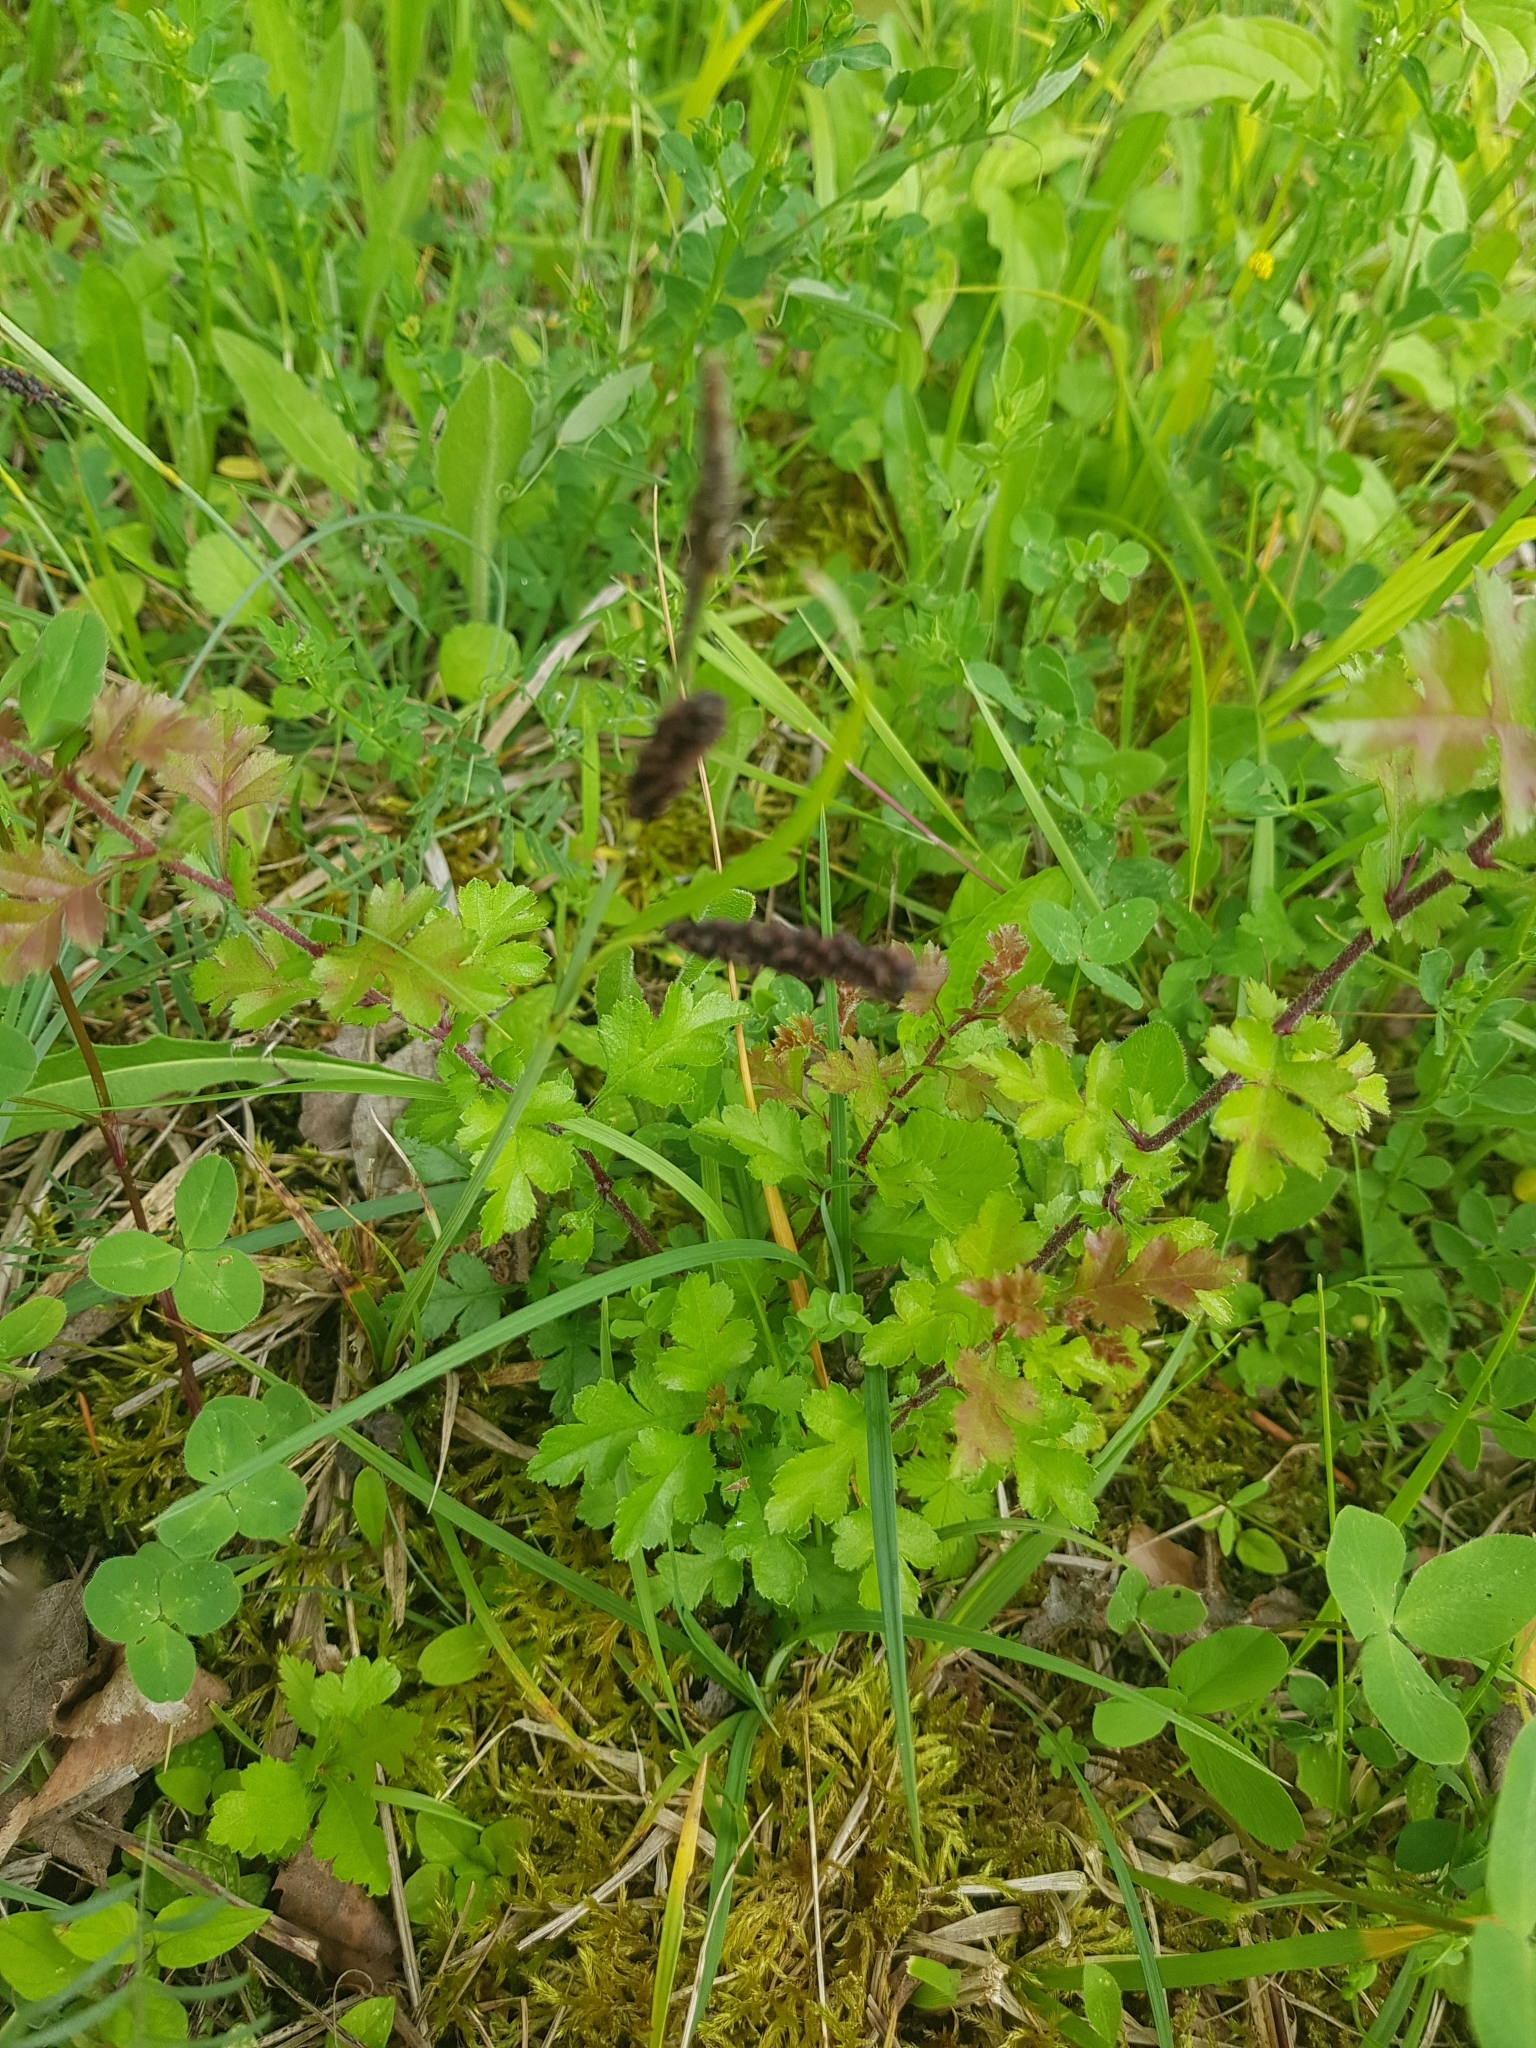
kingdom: Plantae
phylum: Tracheophyta
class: Liliopsida
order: Poales
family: Cyperaceae
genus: Carex
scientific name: Carex flacca
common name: Glaucous sedge
